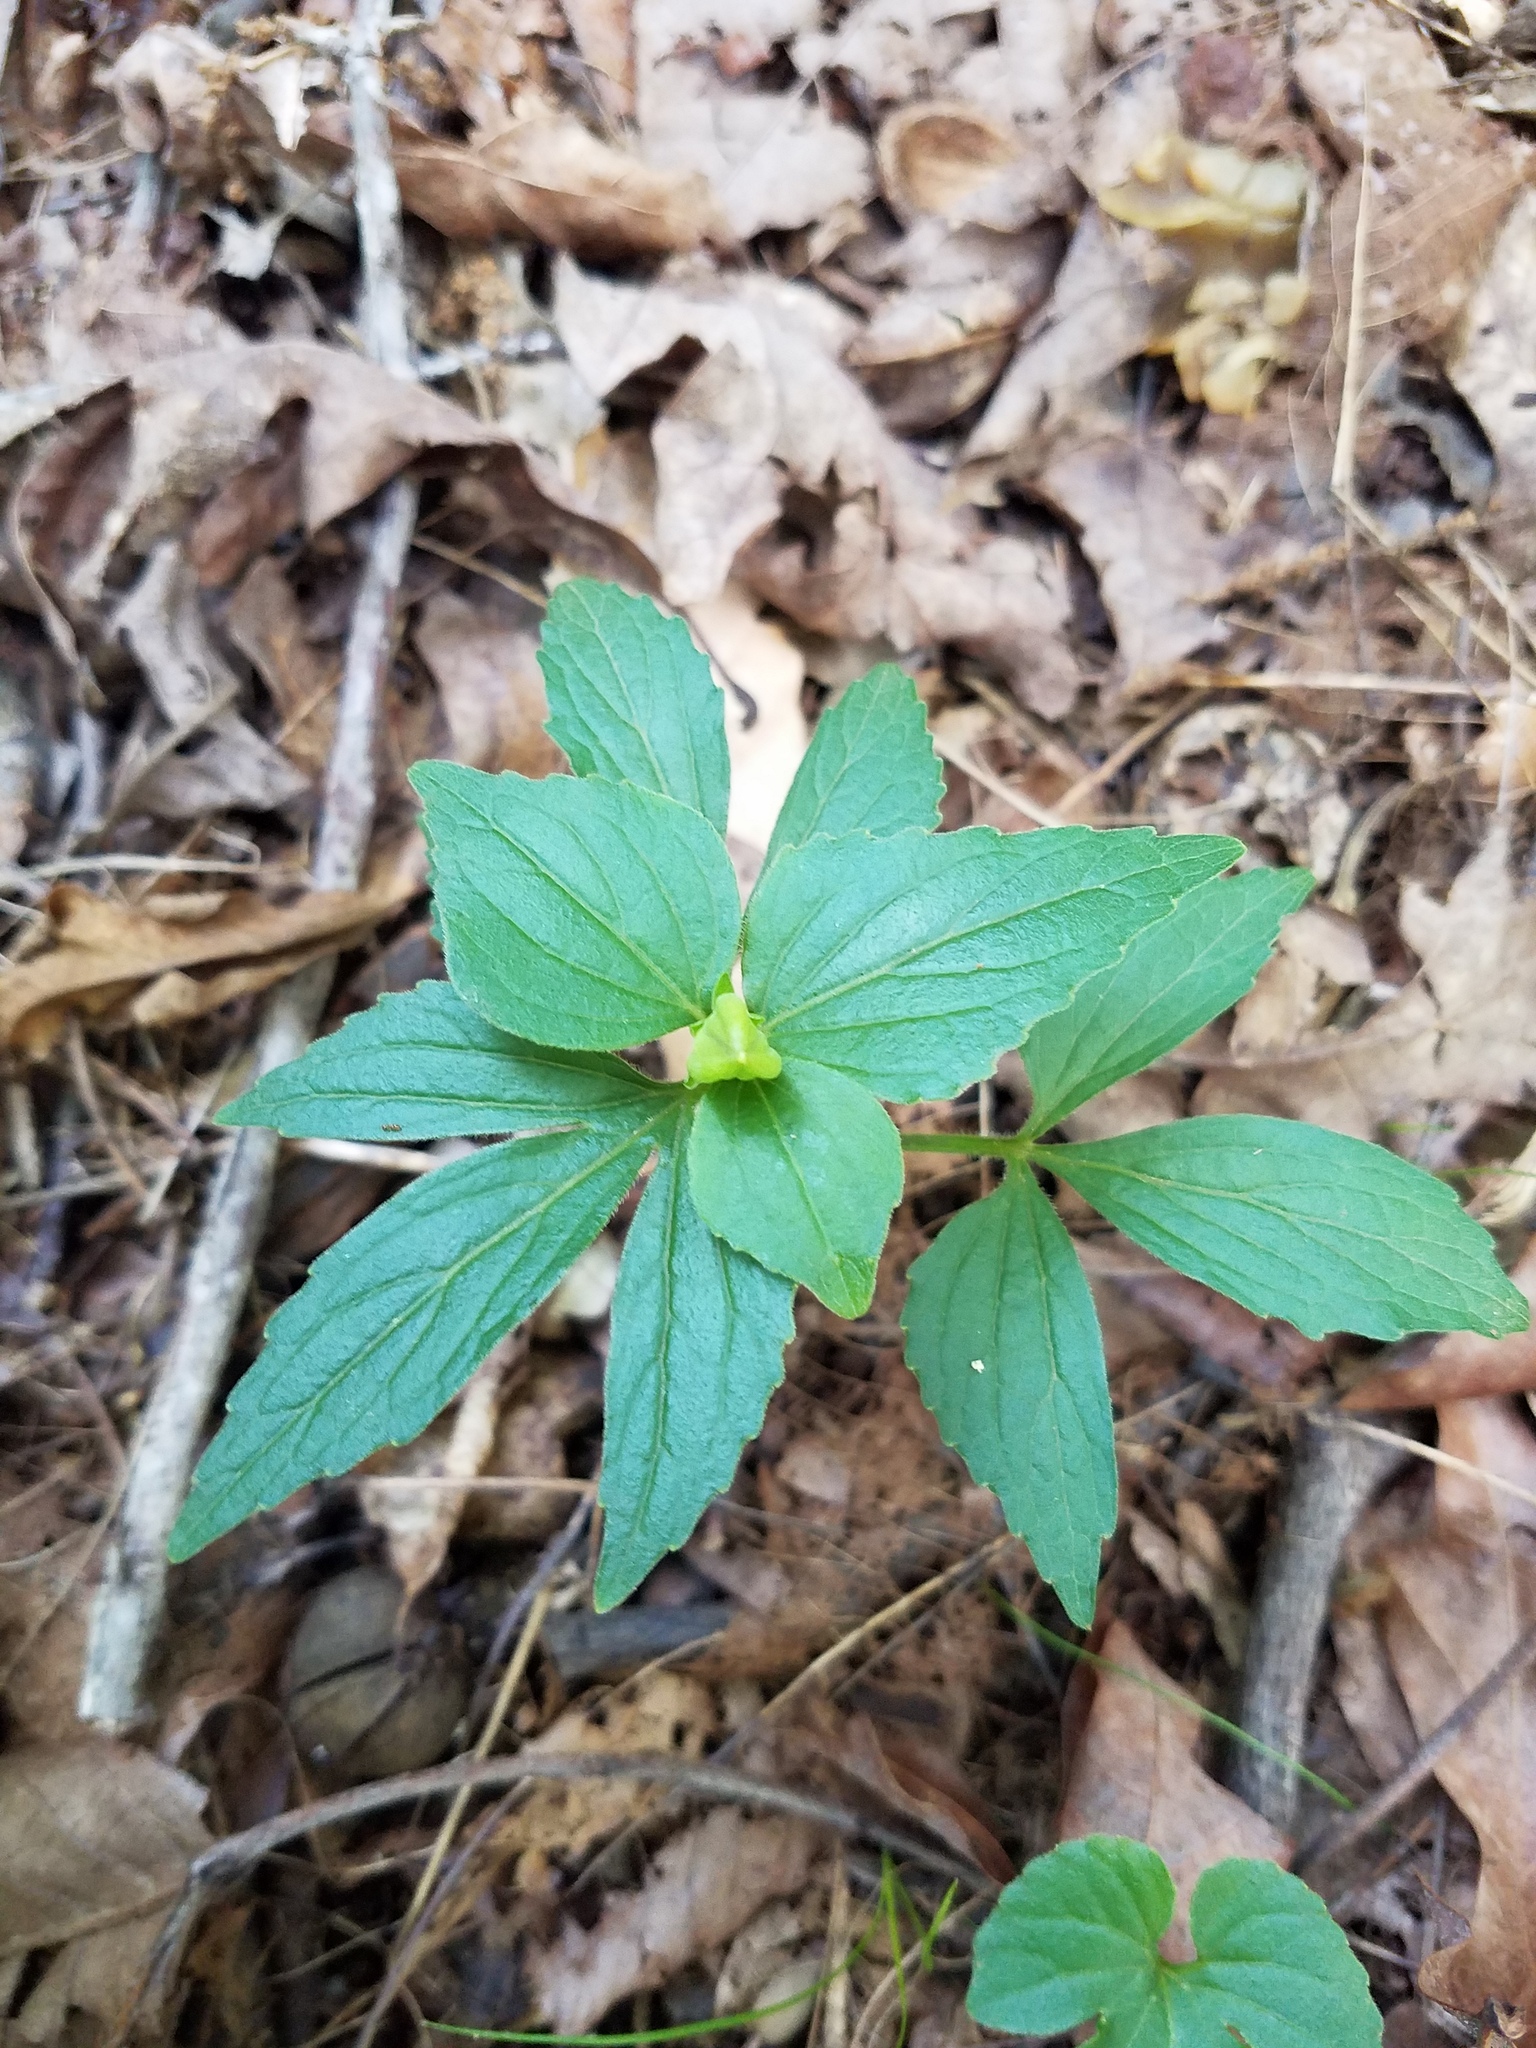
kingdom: Plantae
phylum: Tracheophyta
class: Magnoliopsida
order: Malpighiales
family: Violaceae
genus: Viola
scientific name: Viola tripartita
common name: Three-part violet
